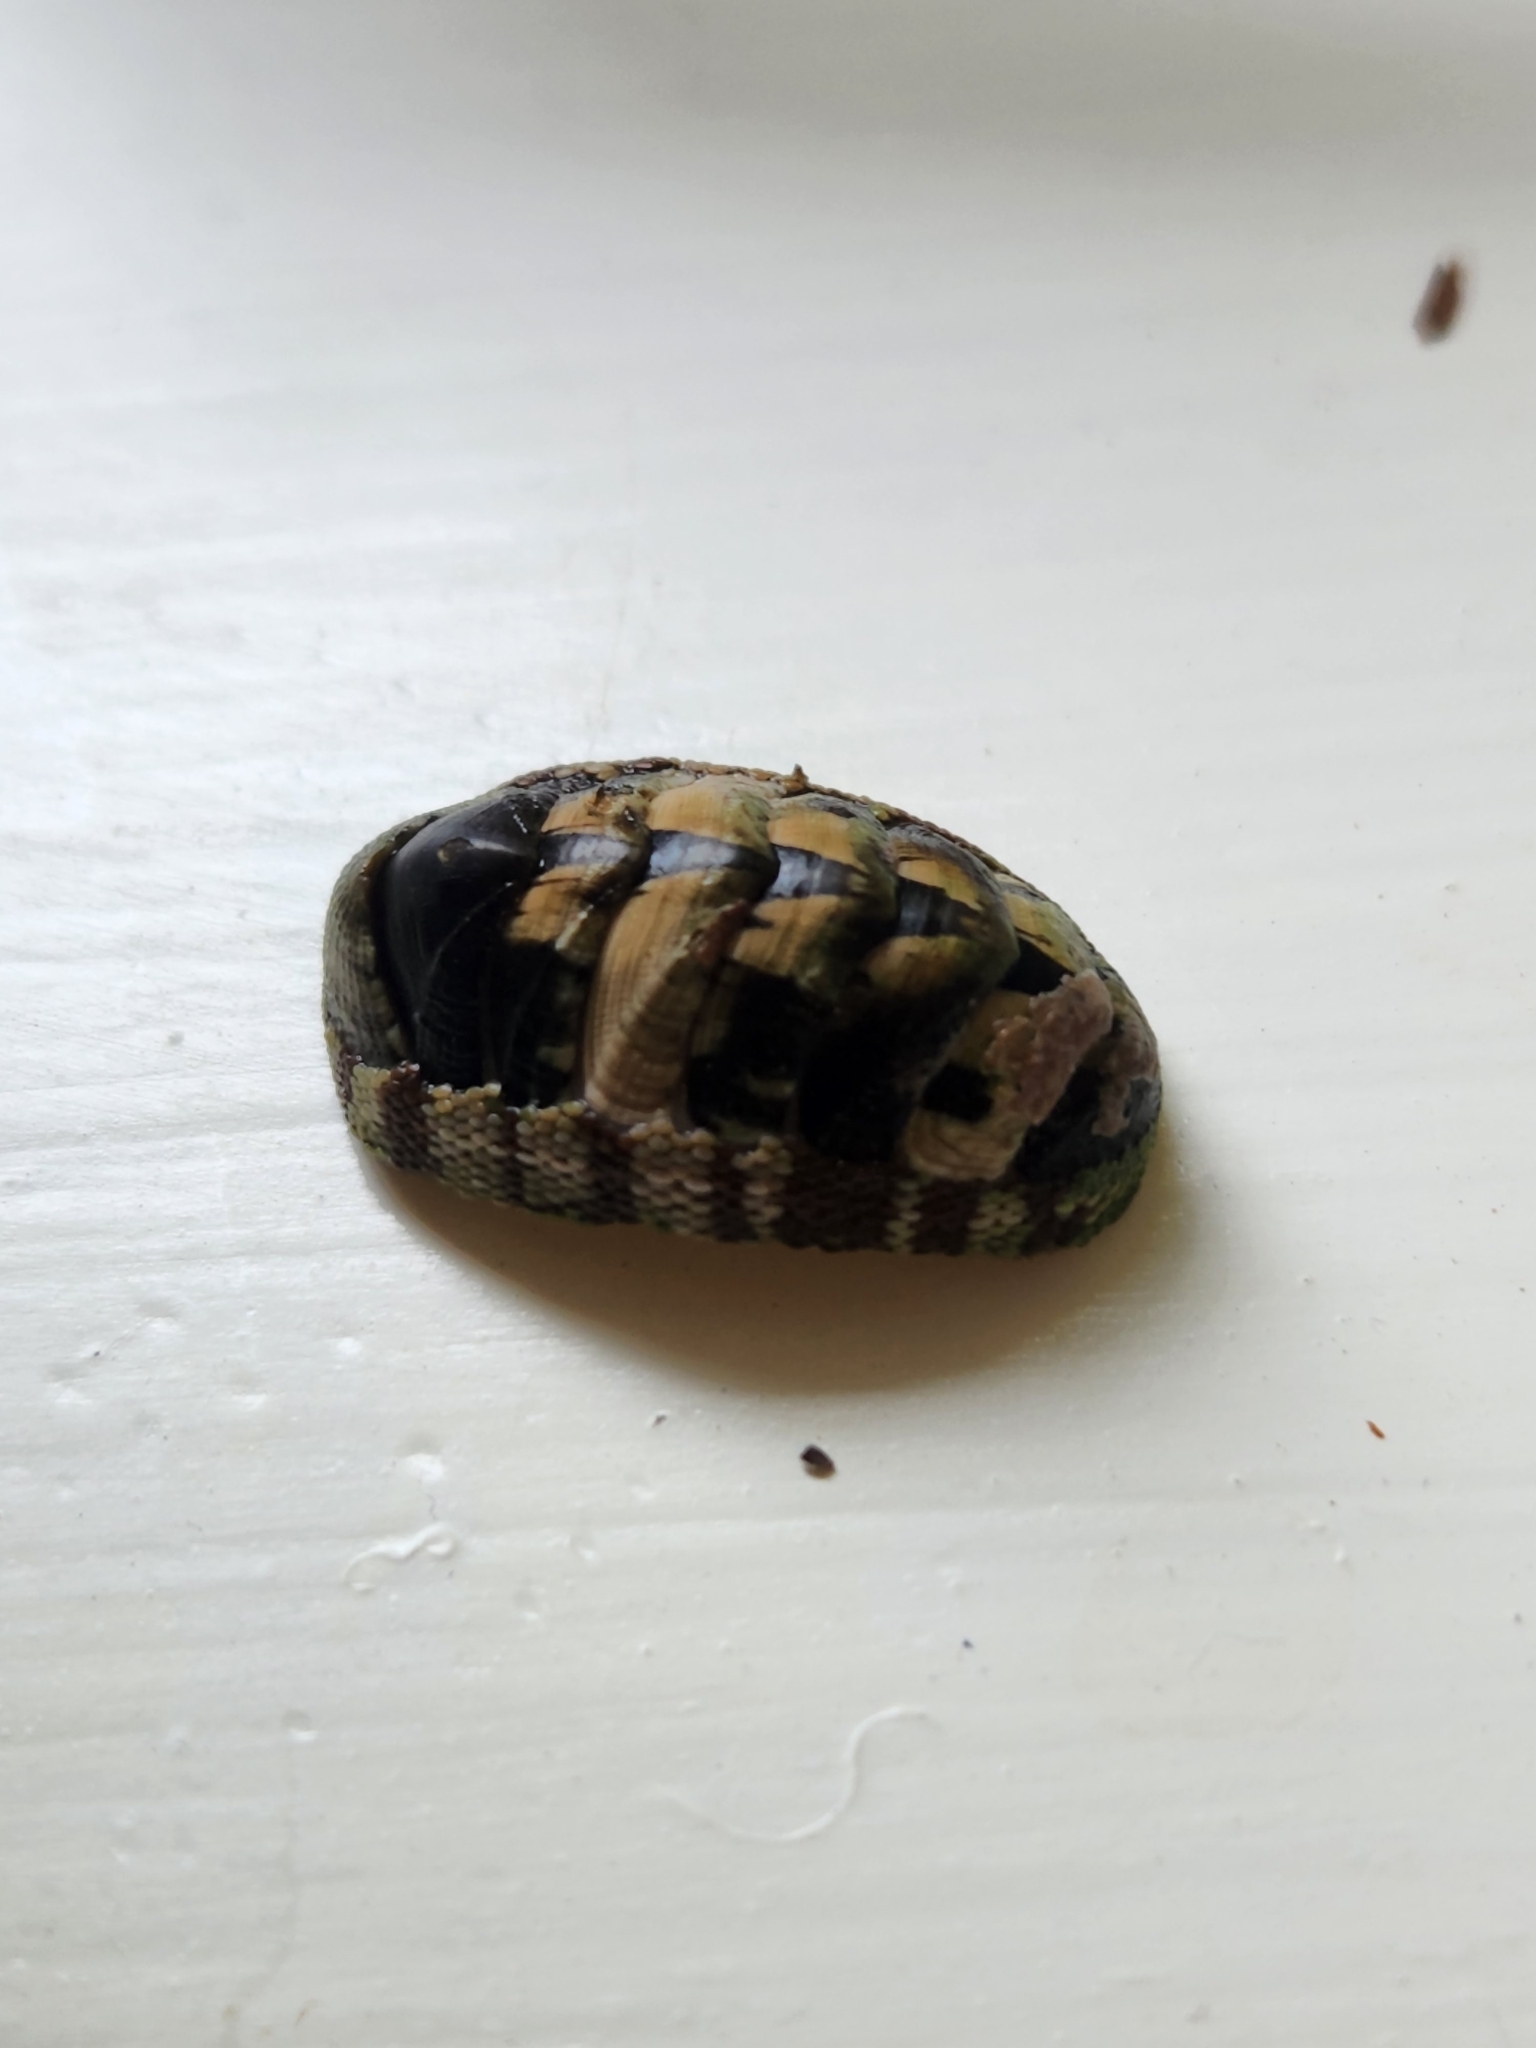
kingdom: Animalia
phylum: Mollusca
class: Polyplacophora
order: Chitonida
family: Chitonidae
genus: Sypharochiton
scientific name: Sypharochiton pelliserpentis
